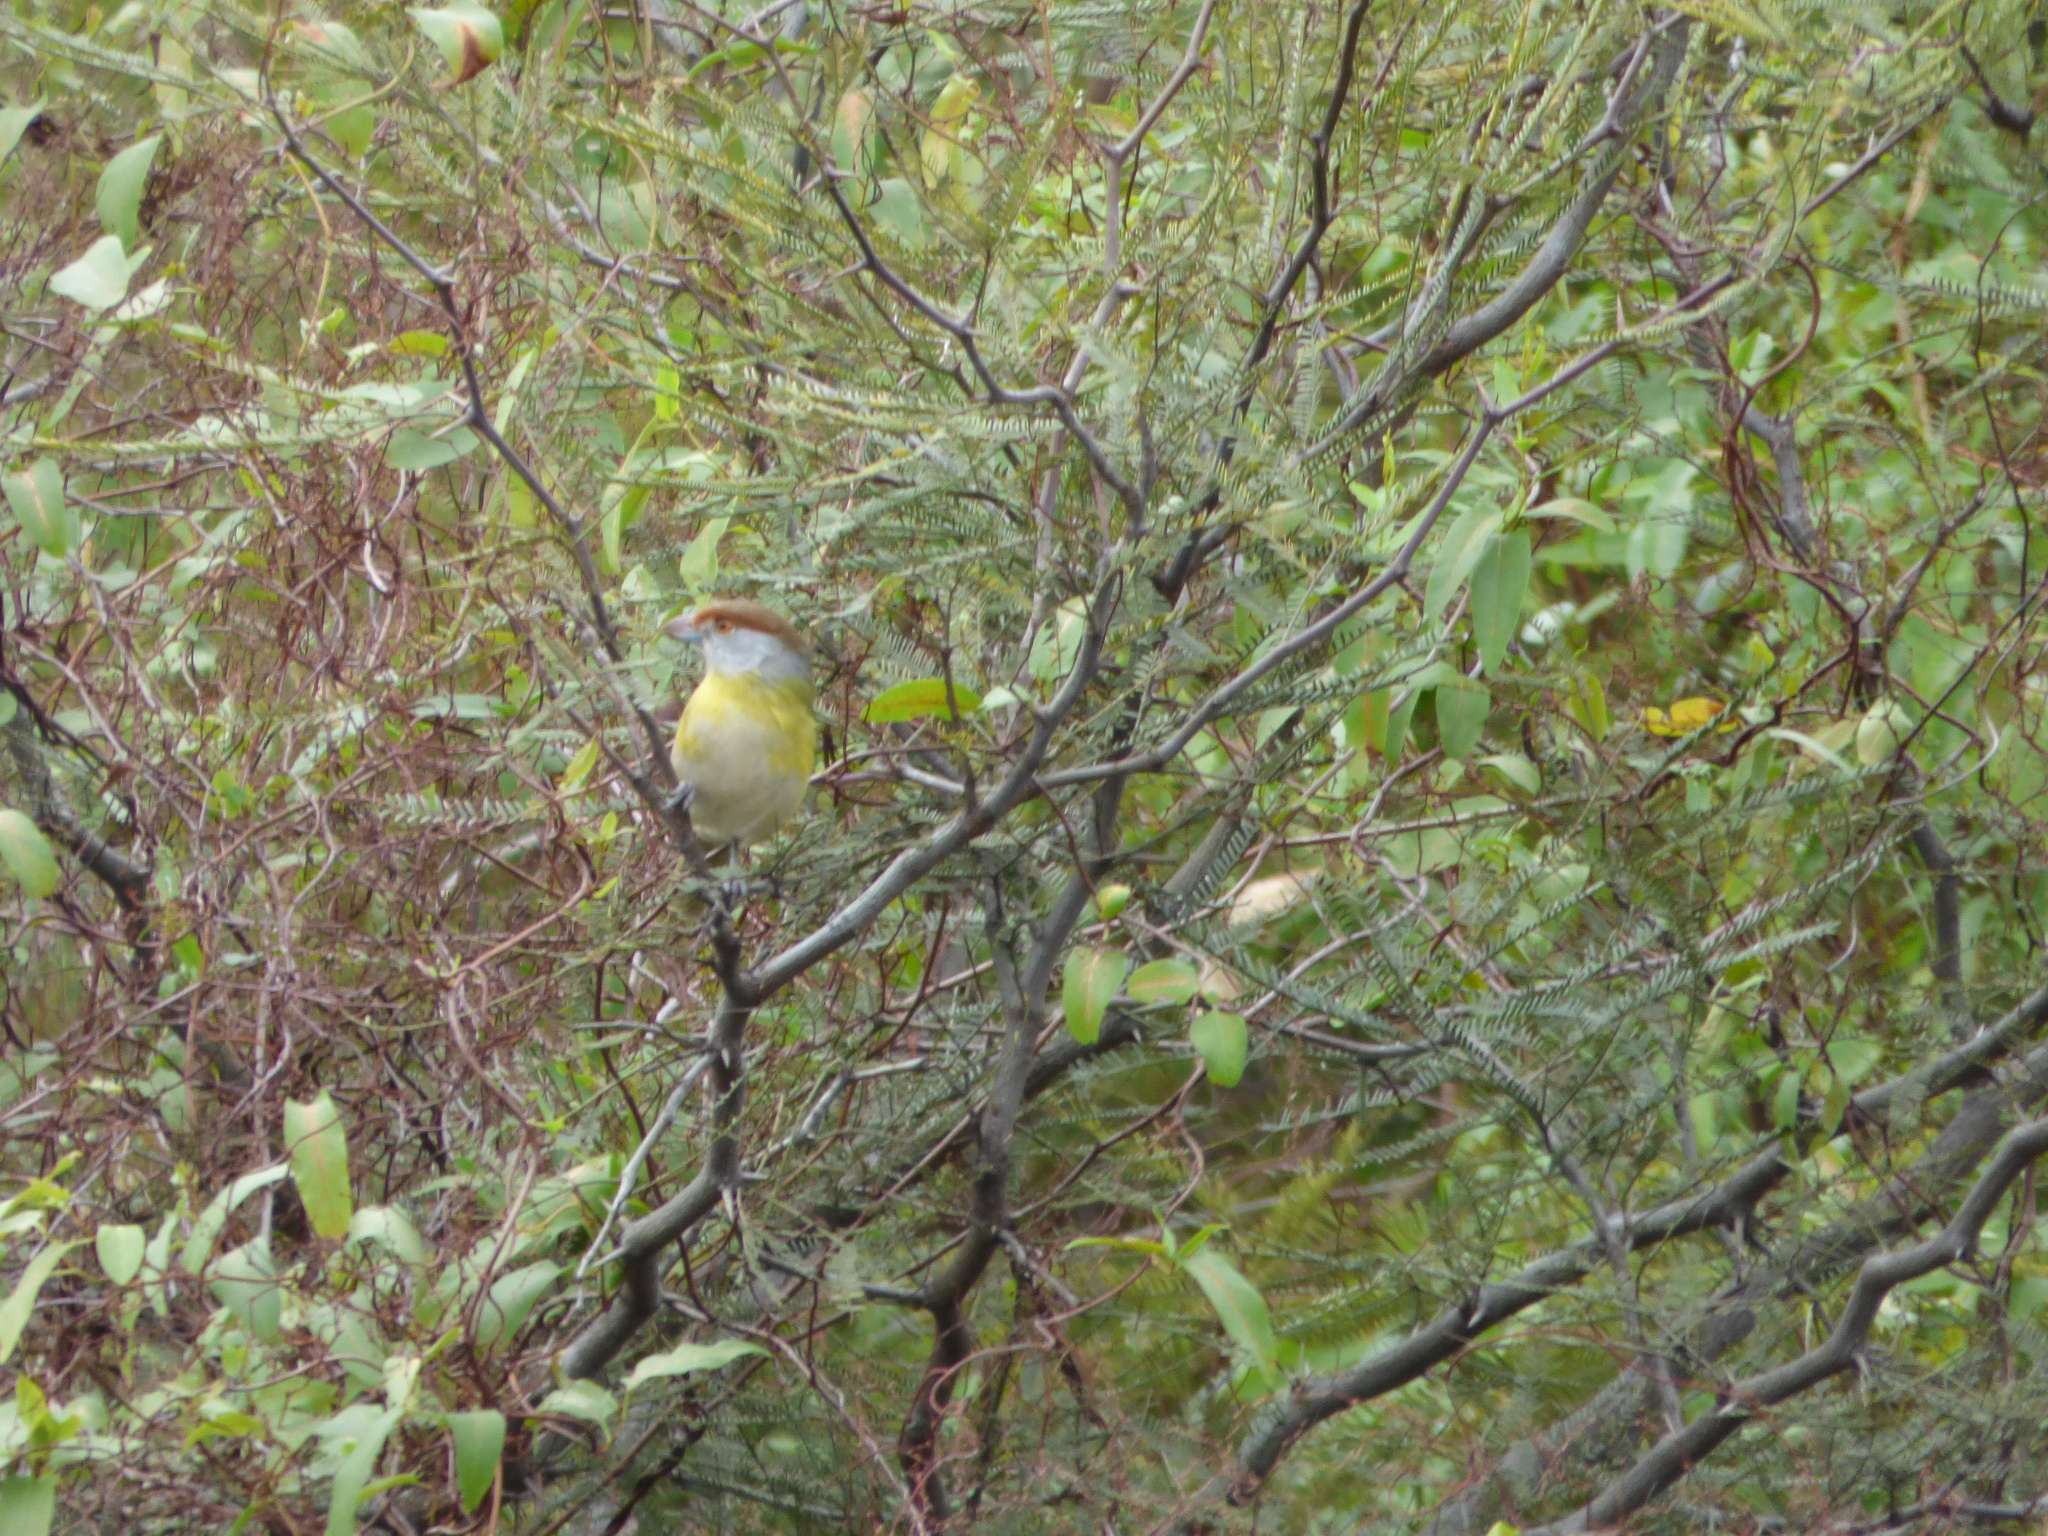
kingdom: Animalia
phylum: Chordata
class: Aves
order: Passeriformes
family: Vireonidae
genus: Cyclarhis
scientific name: Cyclarhis gujanensis
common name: Rufous-browed peppershrike
